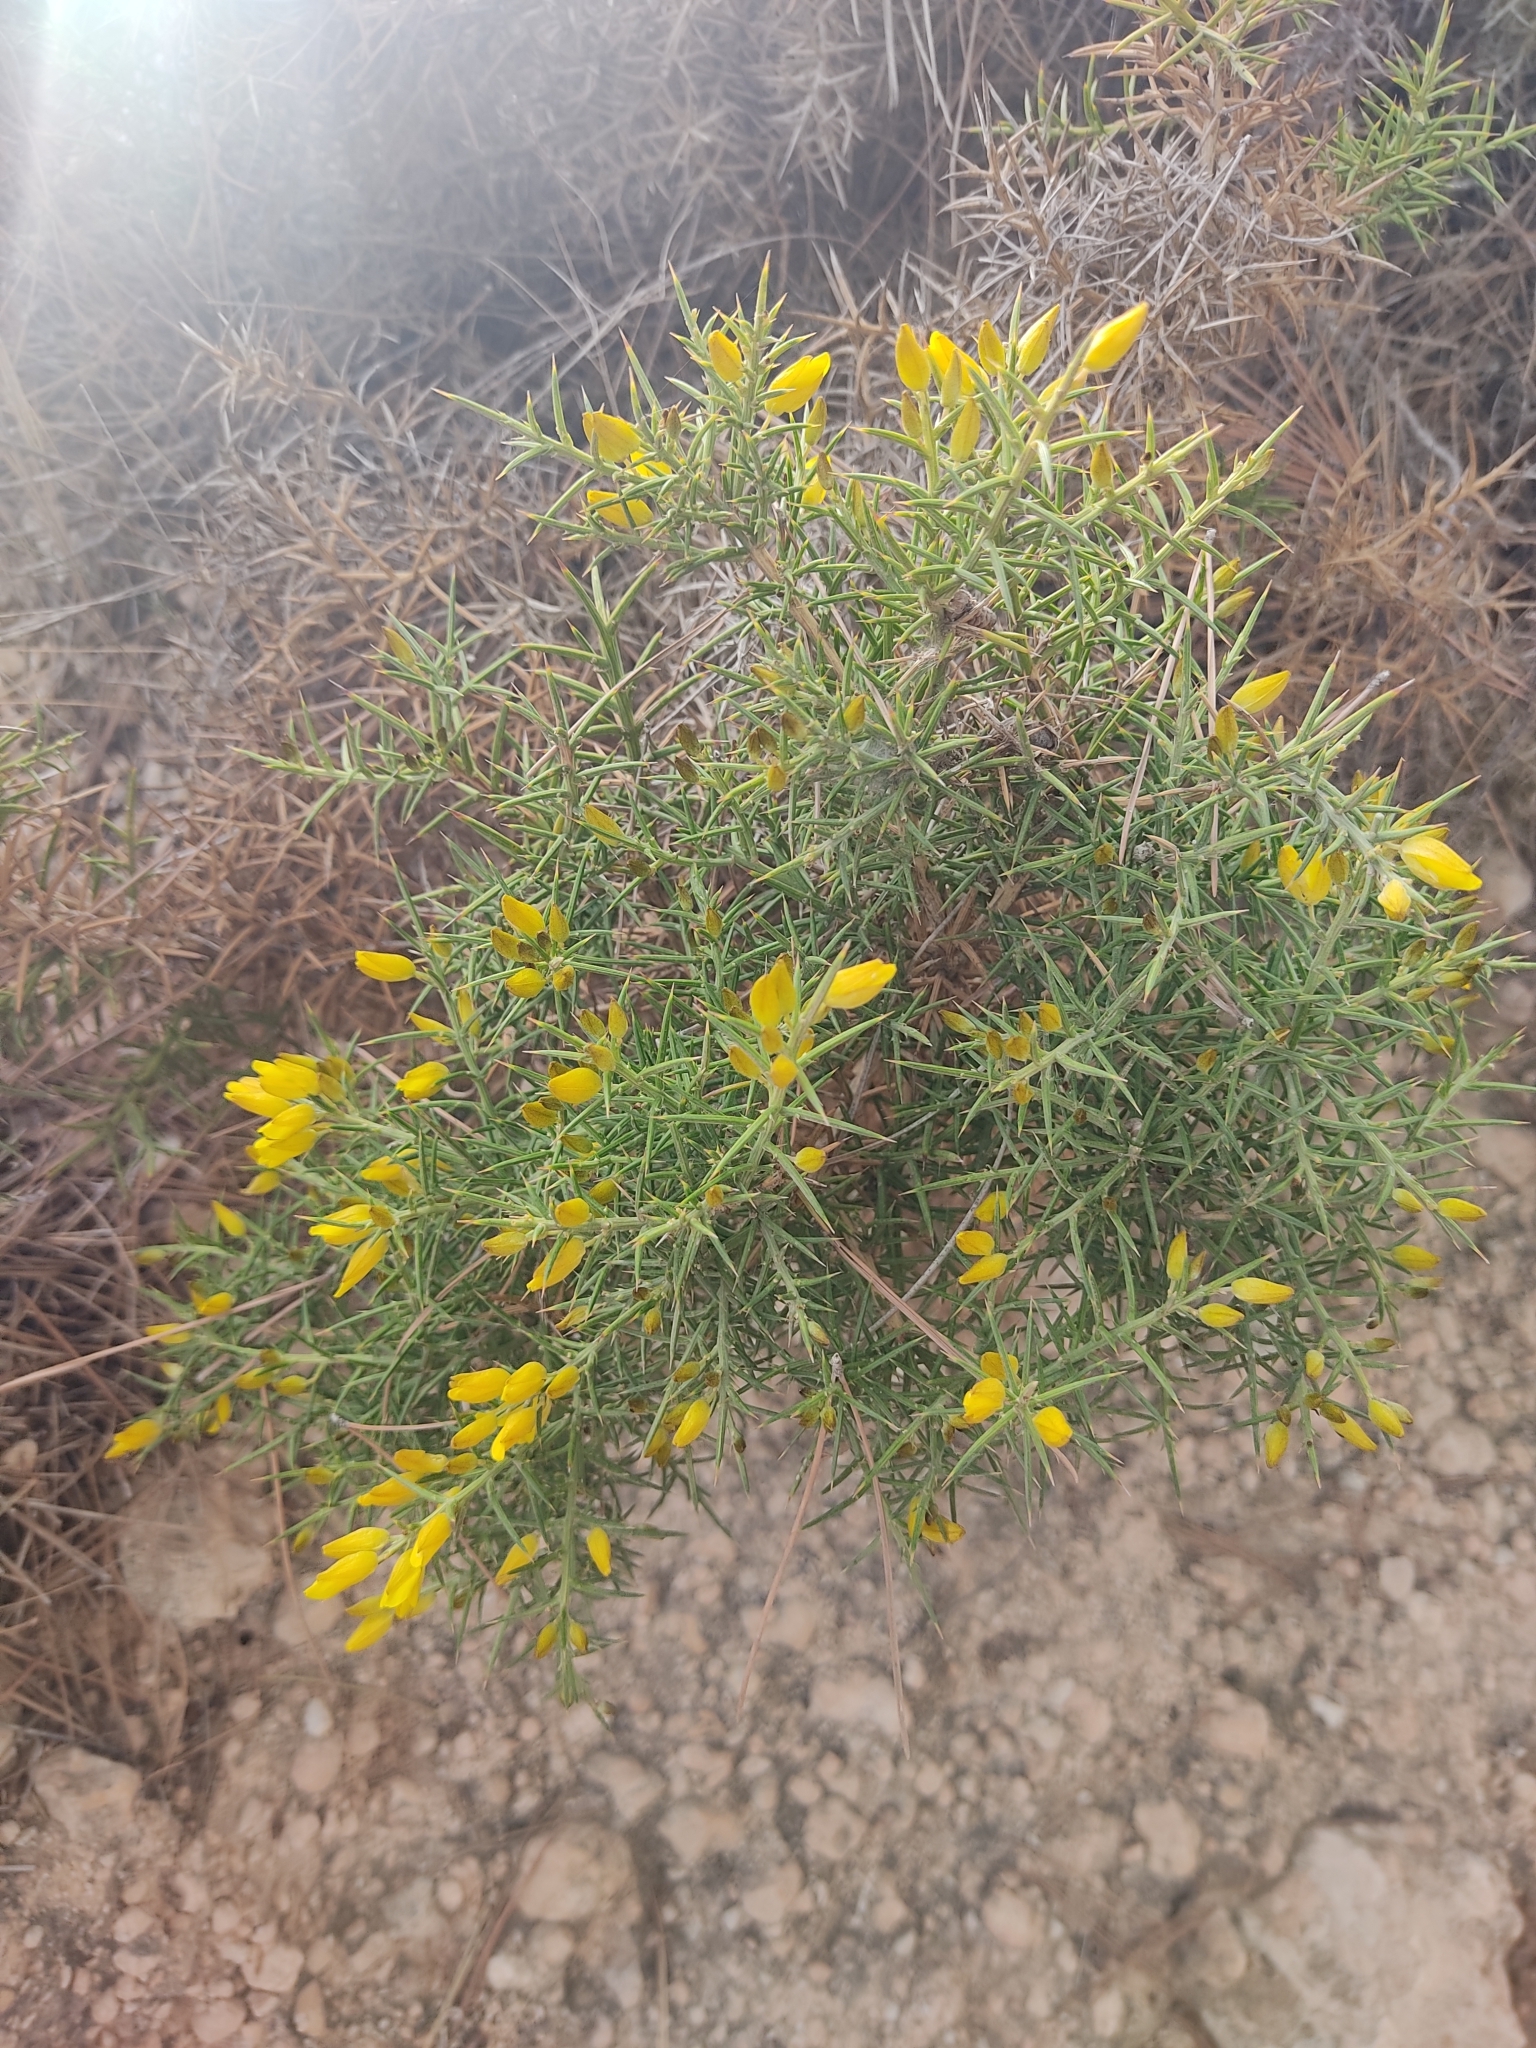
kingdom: Plantae
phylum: Tracheophyta
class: Magnoliopsida
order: Fabales
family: Fabaceae
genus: Ulex
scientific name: Ulex parviflorus
